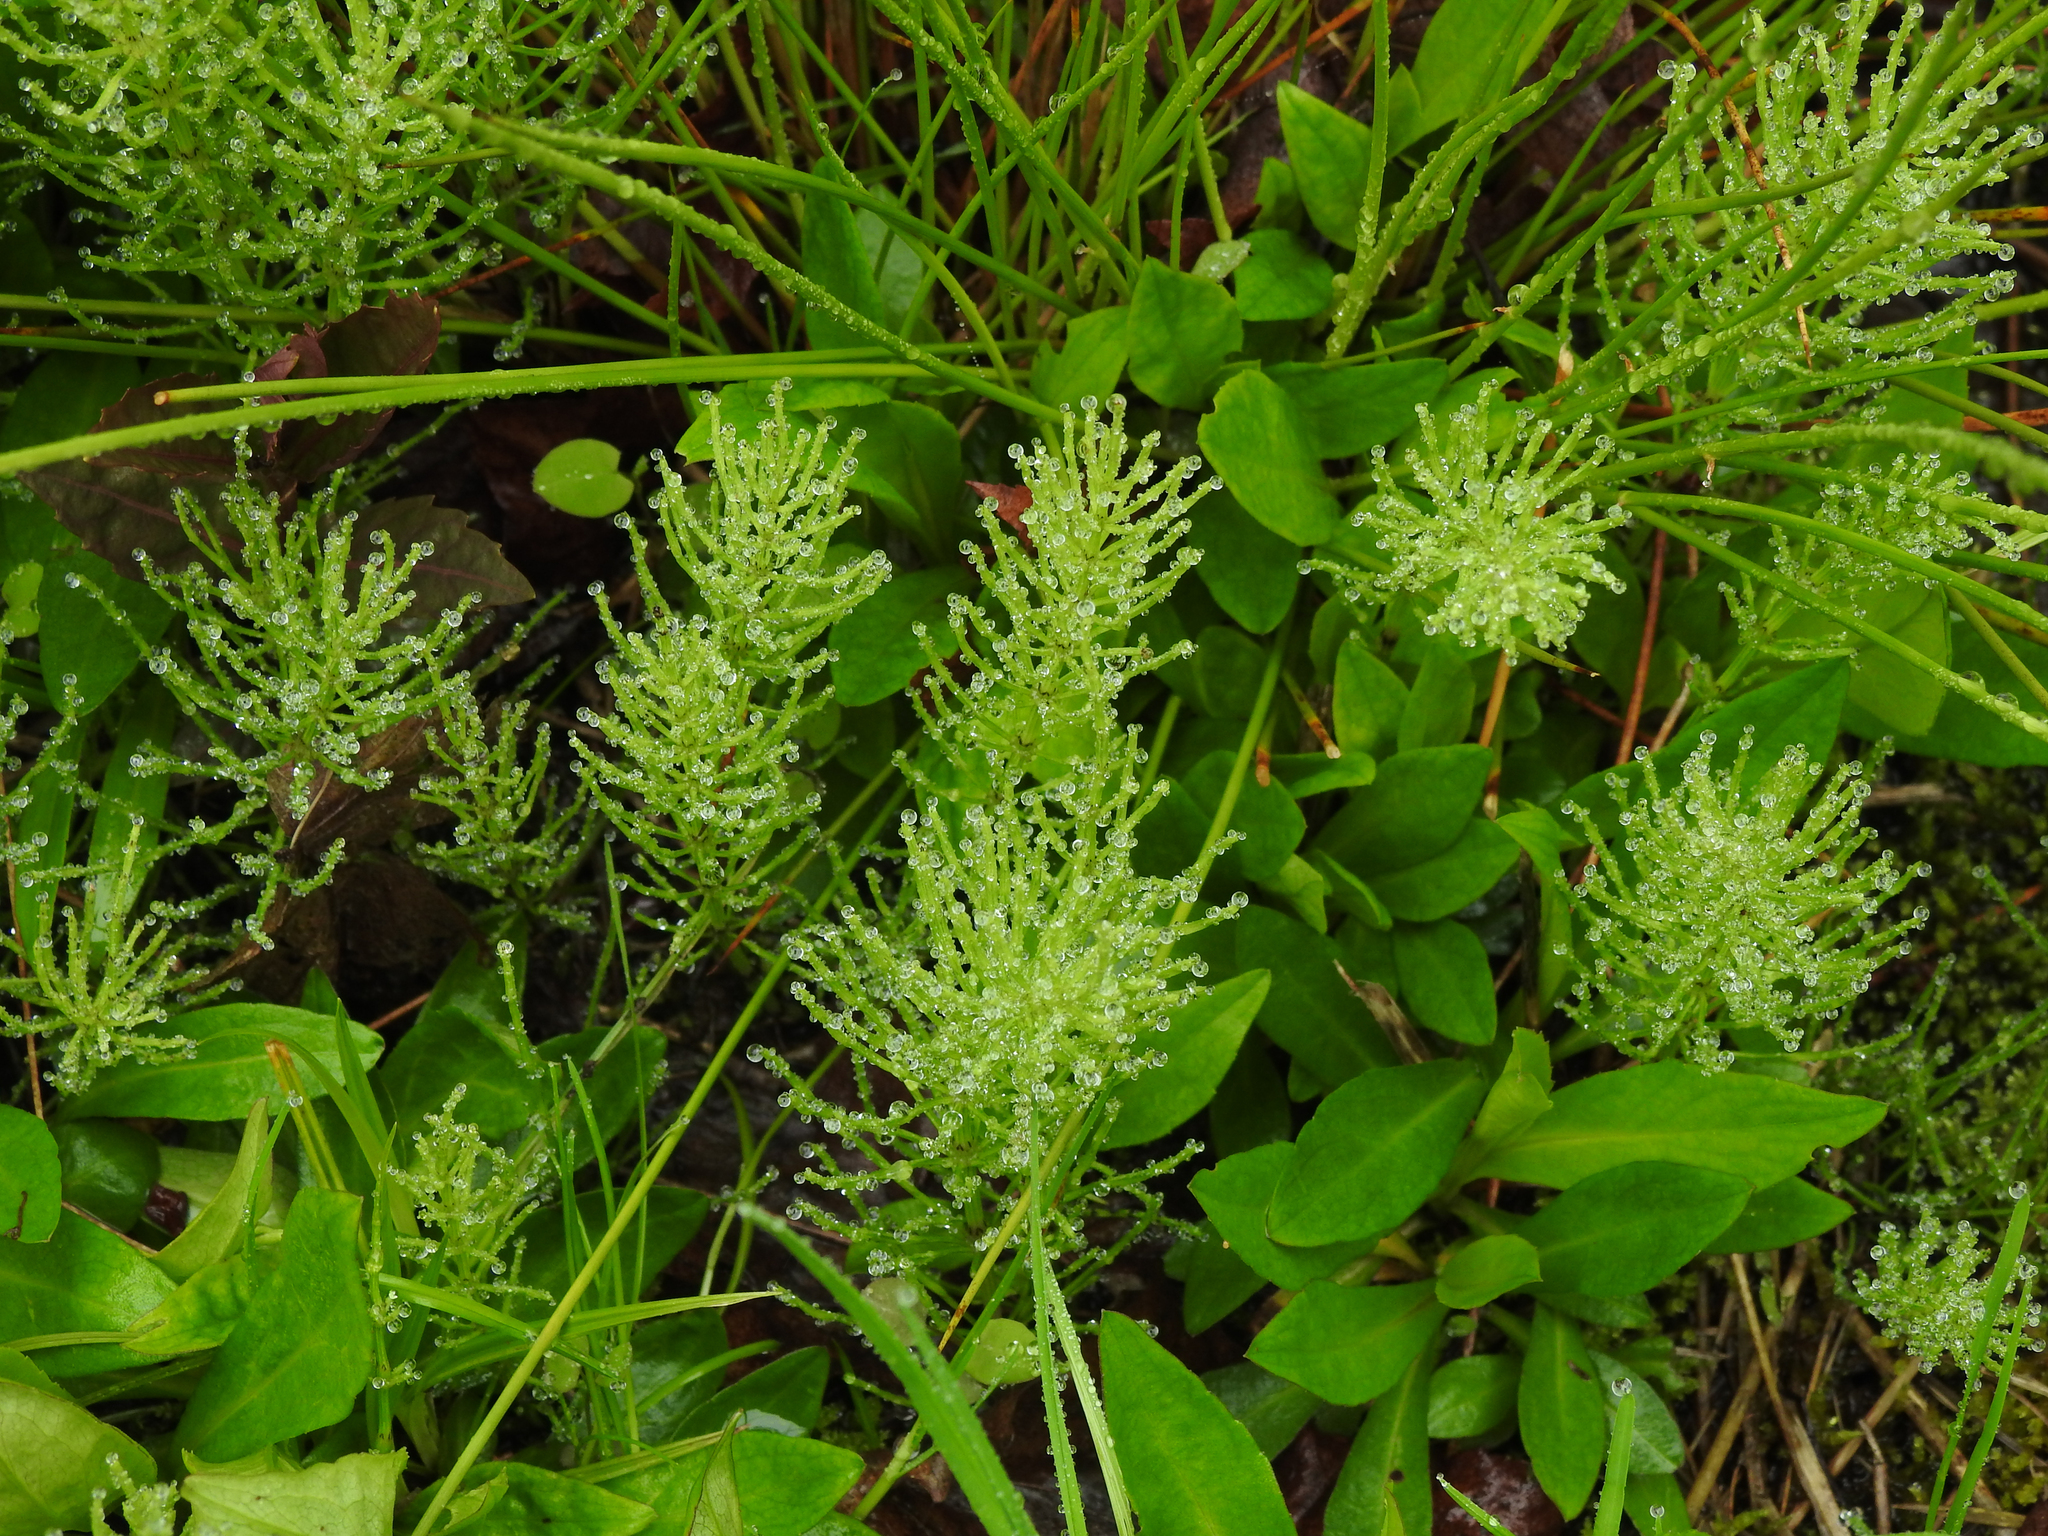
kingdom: Plantae
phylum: Tracheophyta
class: Polypodiopsida
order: Equisetales
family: Equisetaceae
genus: Equisetum
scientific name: Equisetum arvense
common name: Field horsetail
